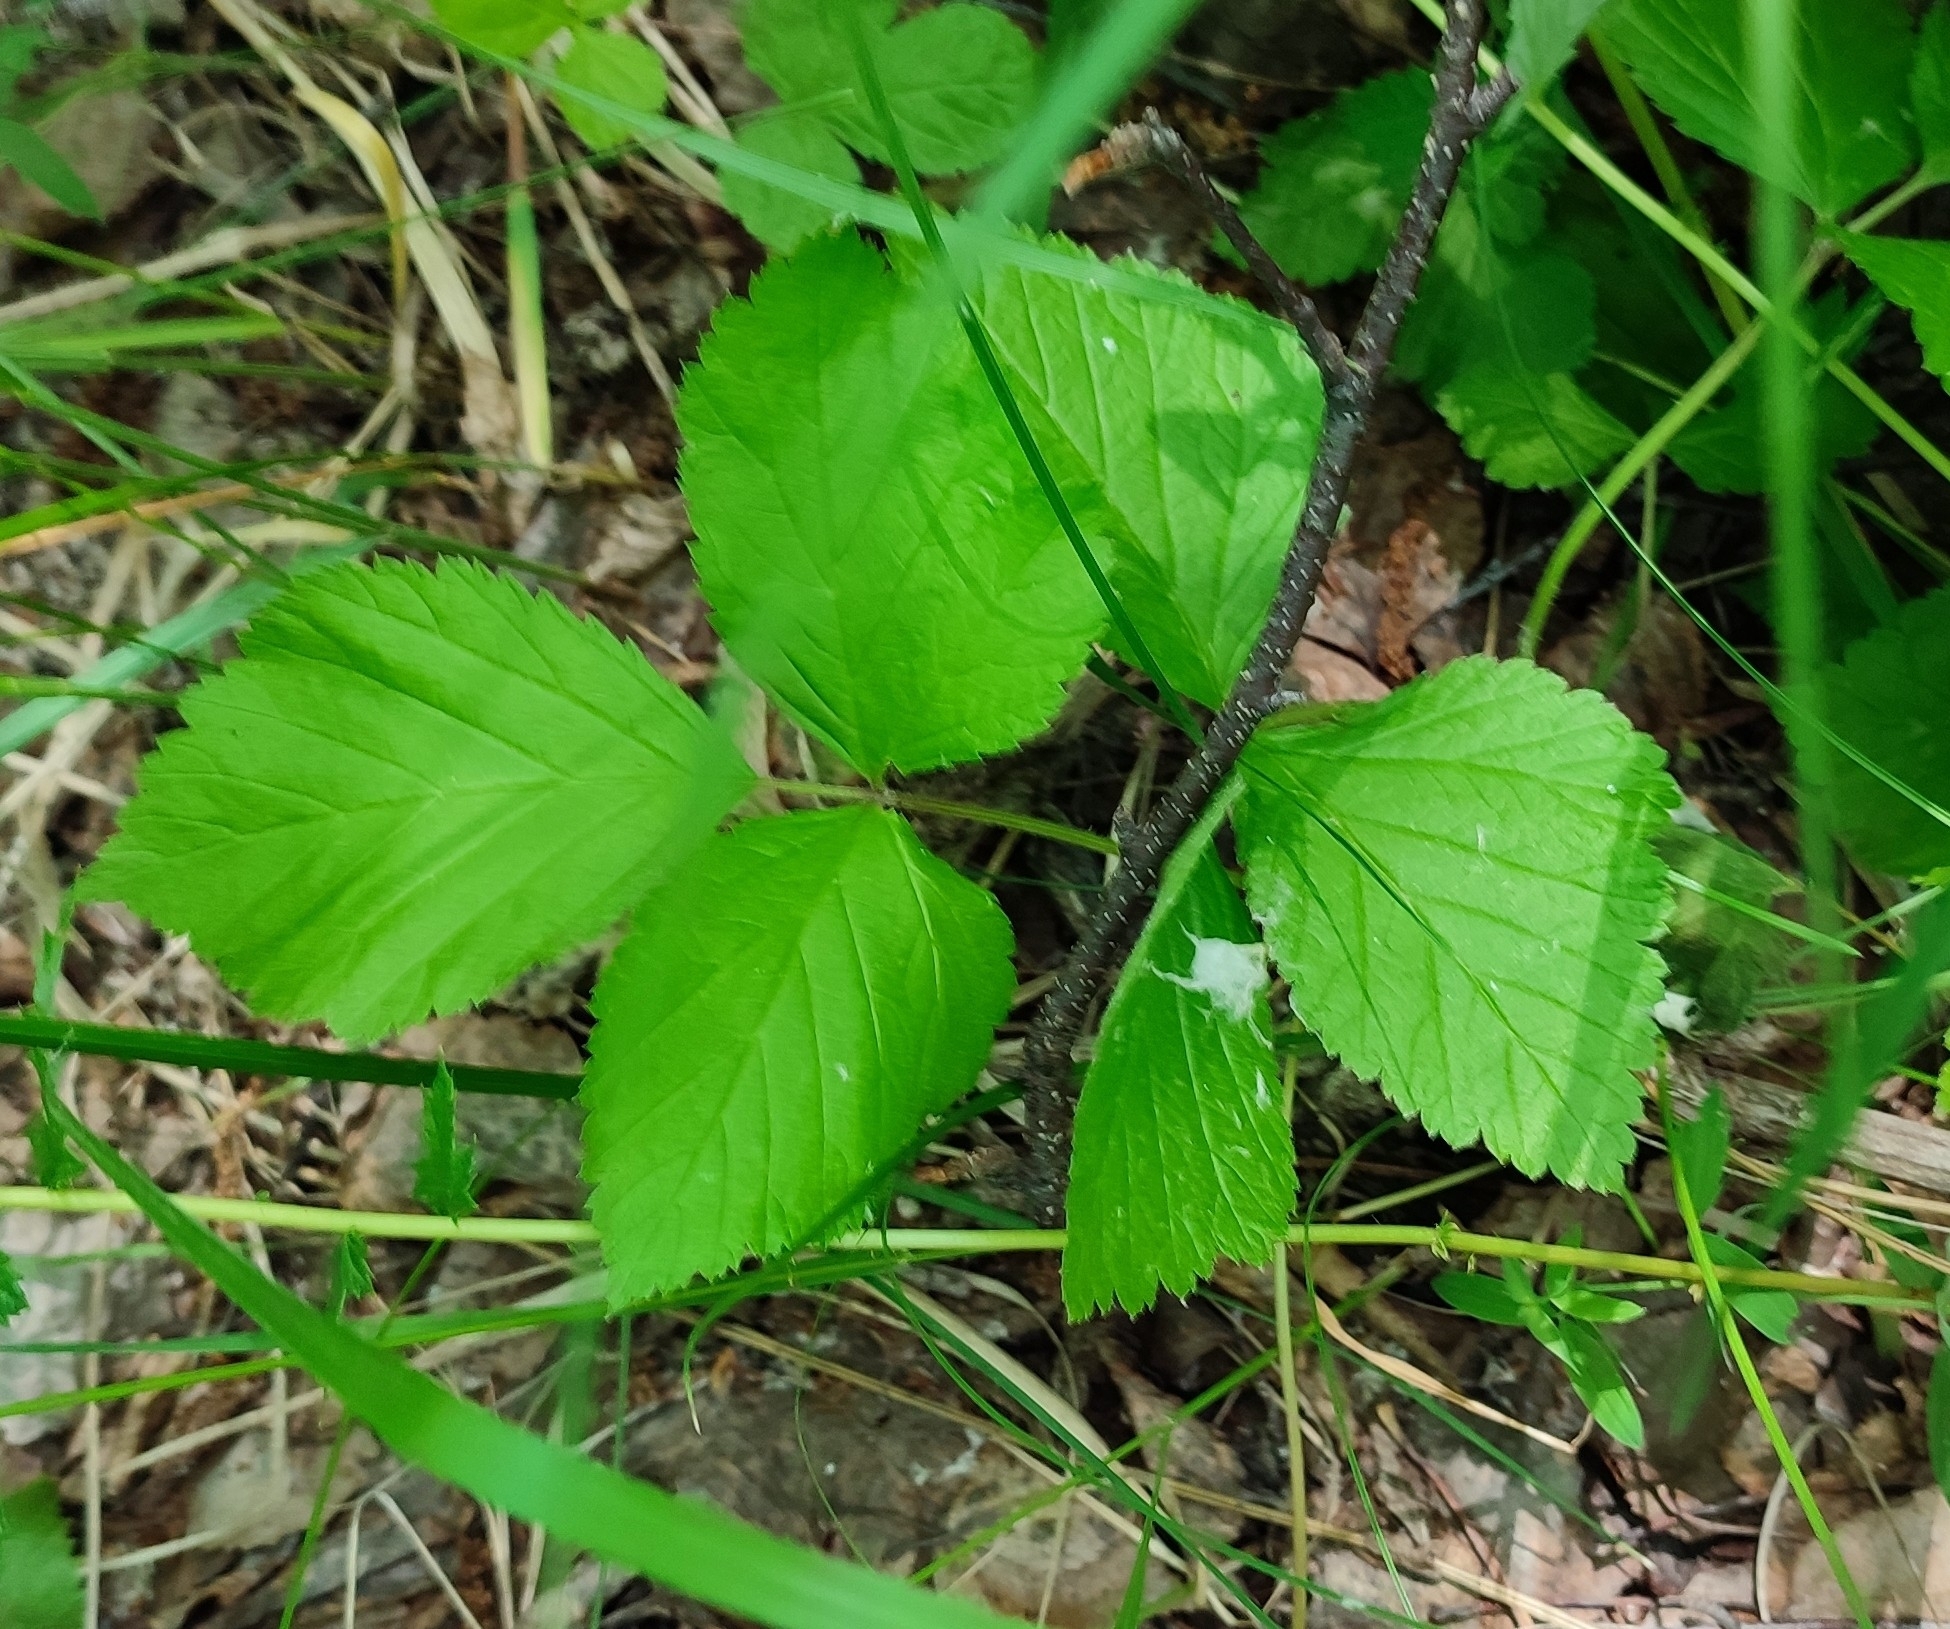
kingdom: Plantae
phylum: Tracheophyta
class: Magnoliopsida
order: Rosales
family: Rosaceae
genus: Rubus
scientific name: Rubus saxatilis
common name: Stone bramble
